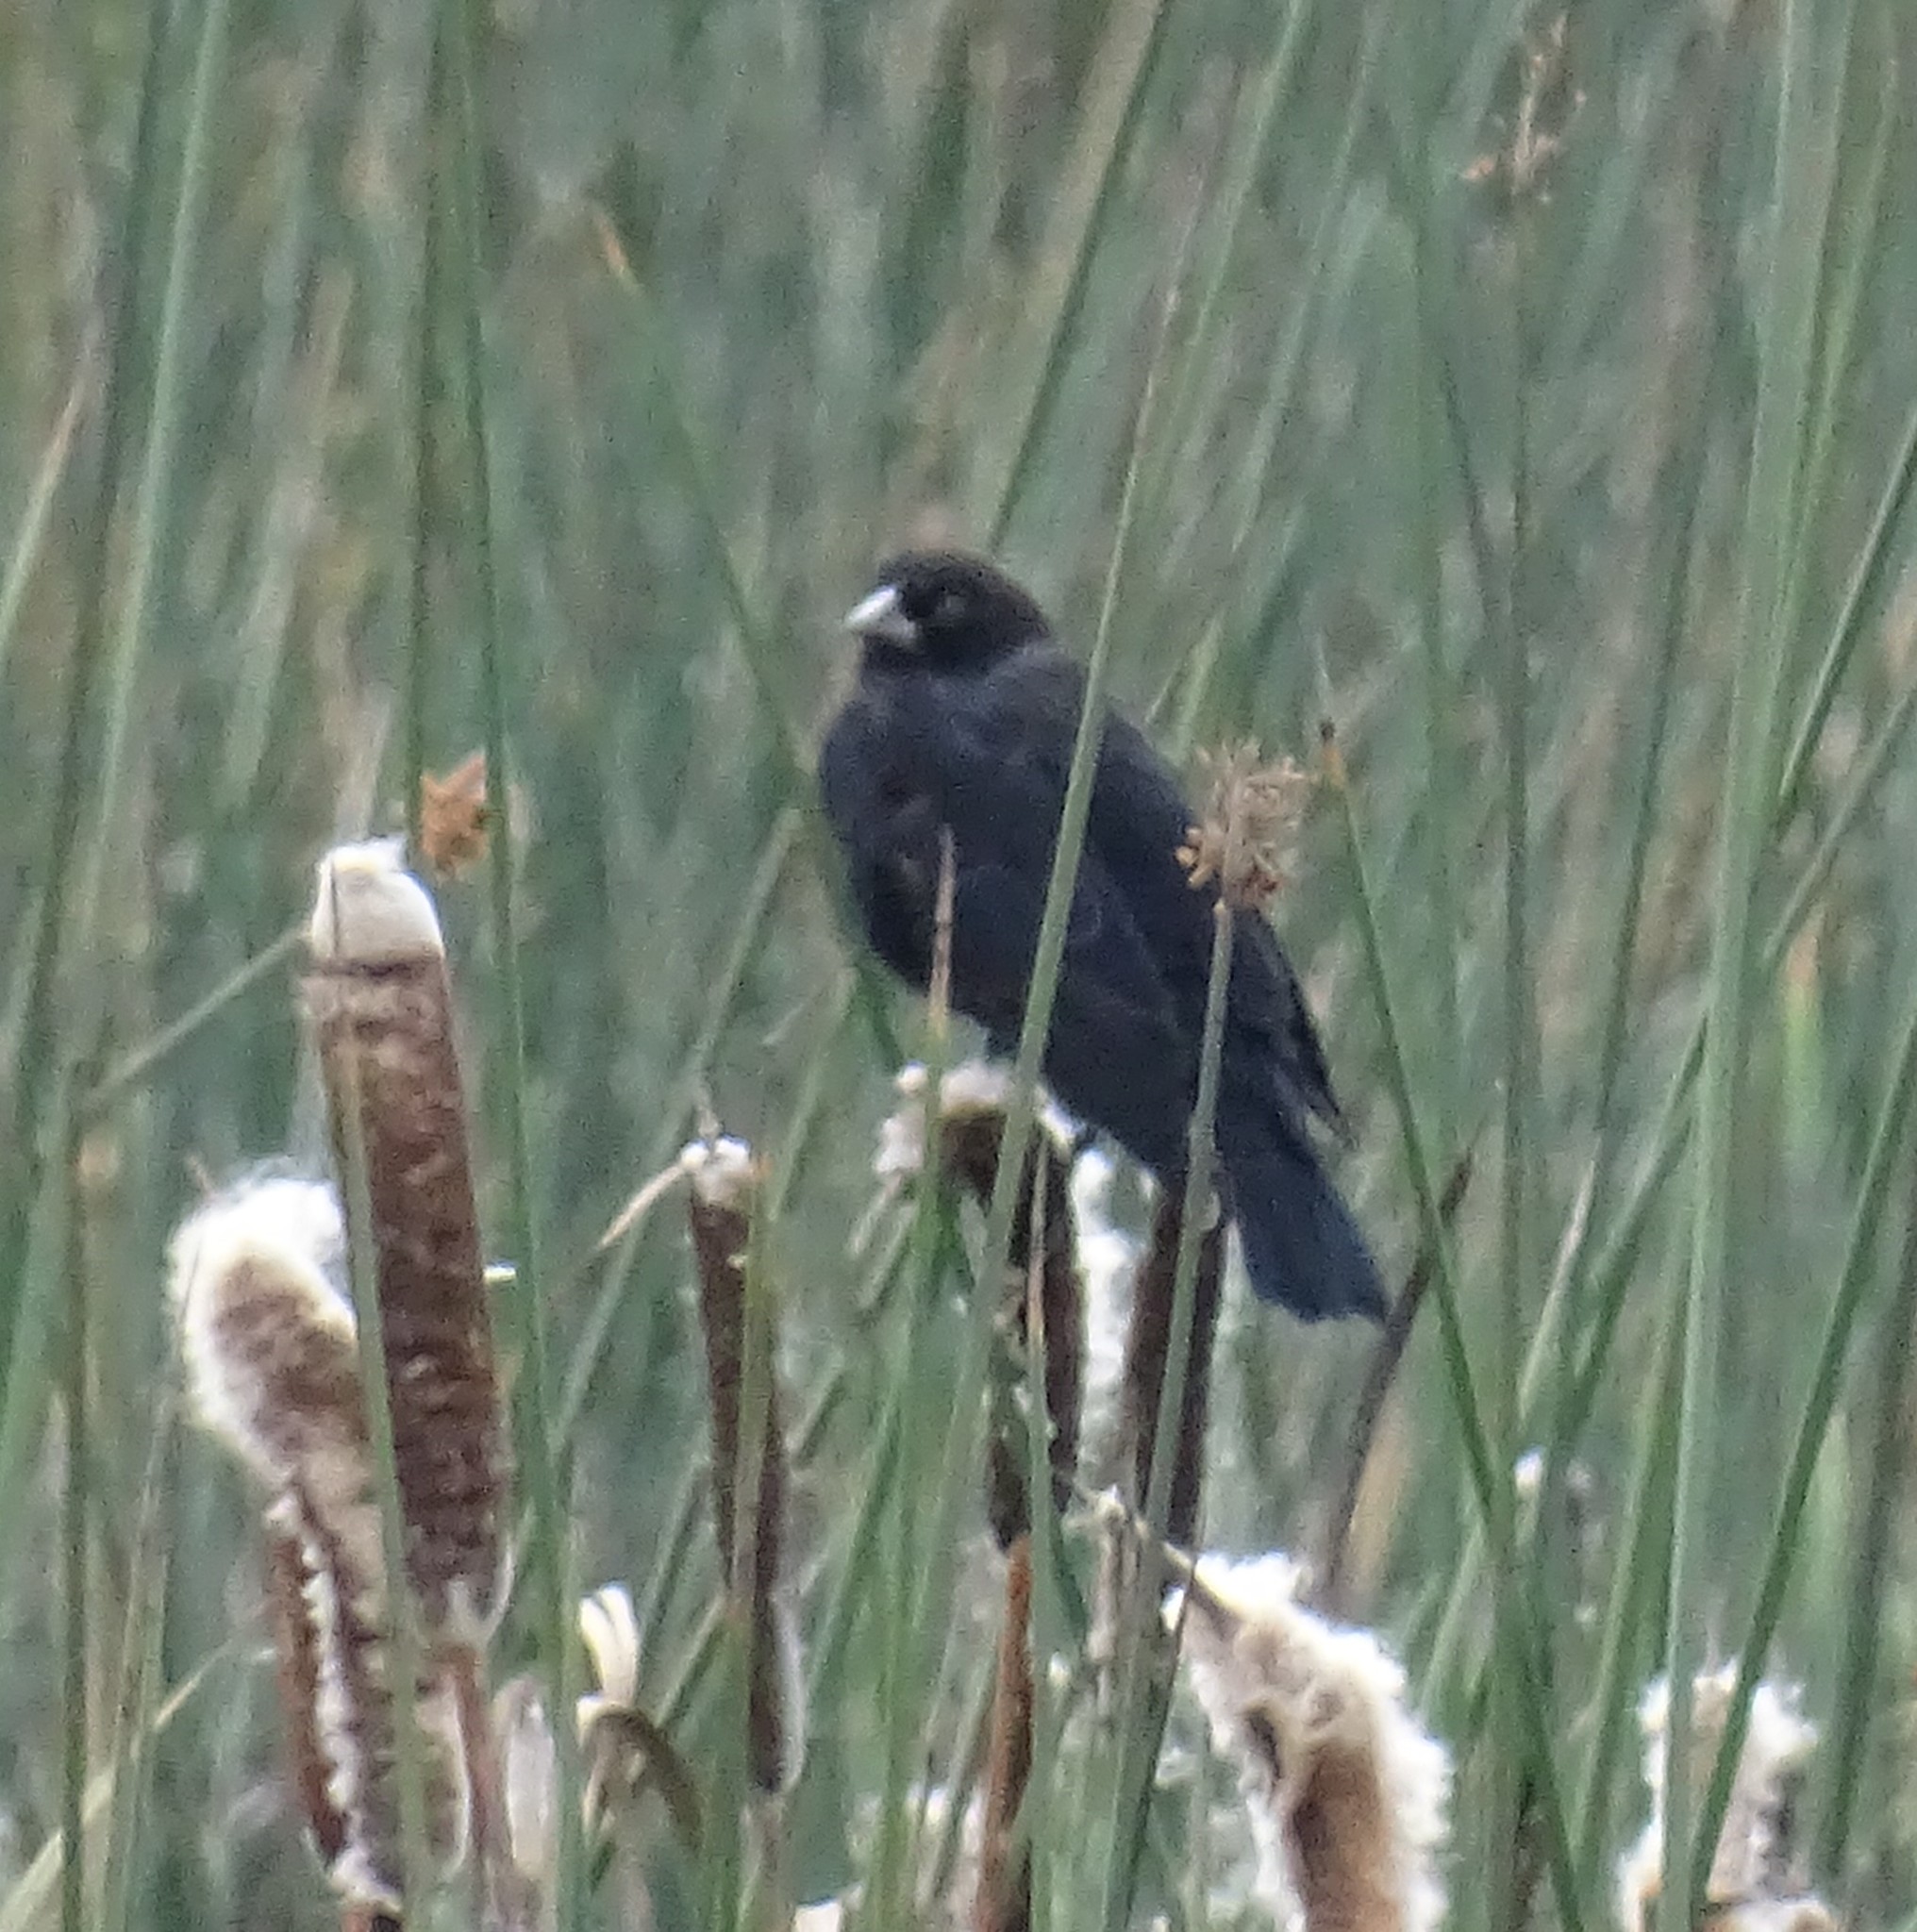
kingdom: Animalia
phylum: Chordata
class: Aves
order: Passeriformes
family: Icteridae
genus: Agelaius
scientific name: Agelaius phoeniceus
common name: Red-winged blackbird
